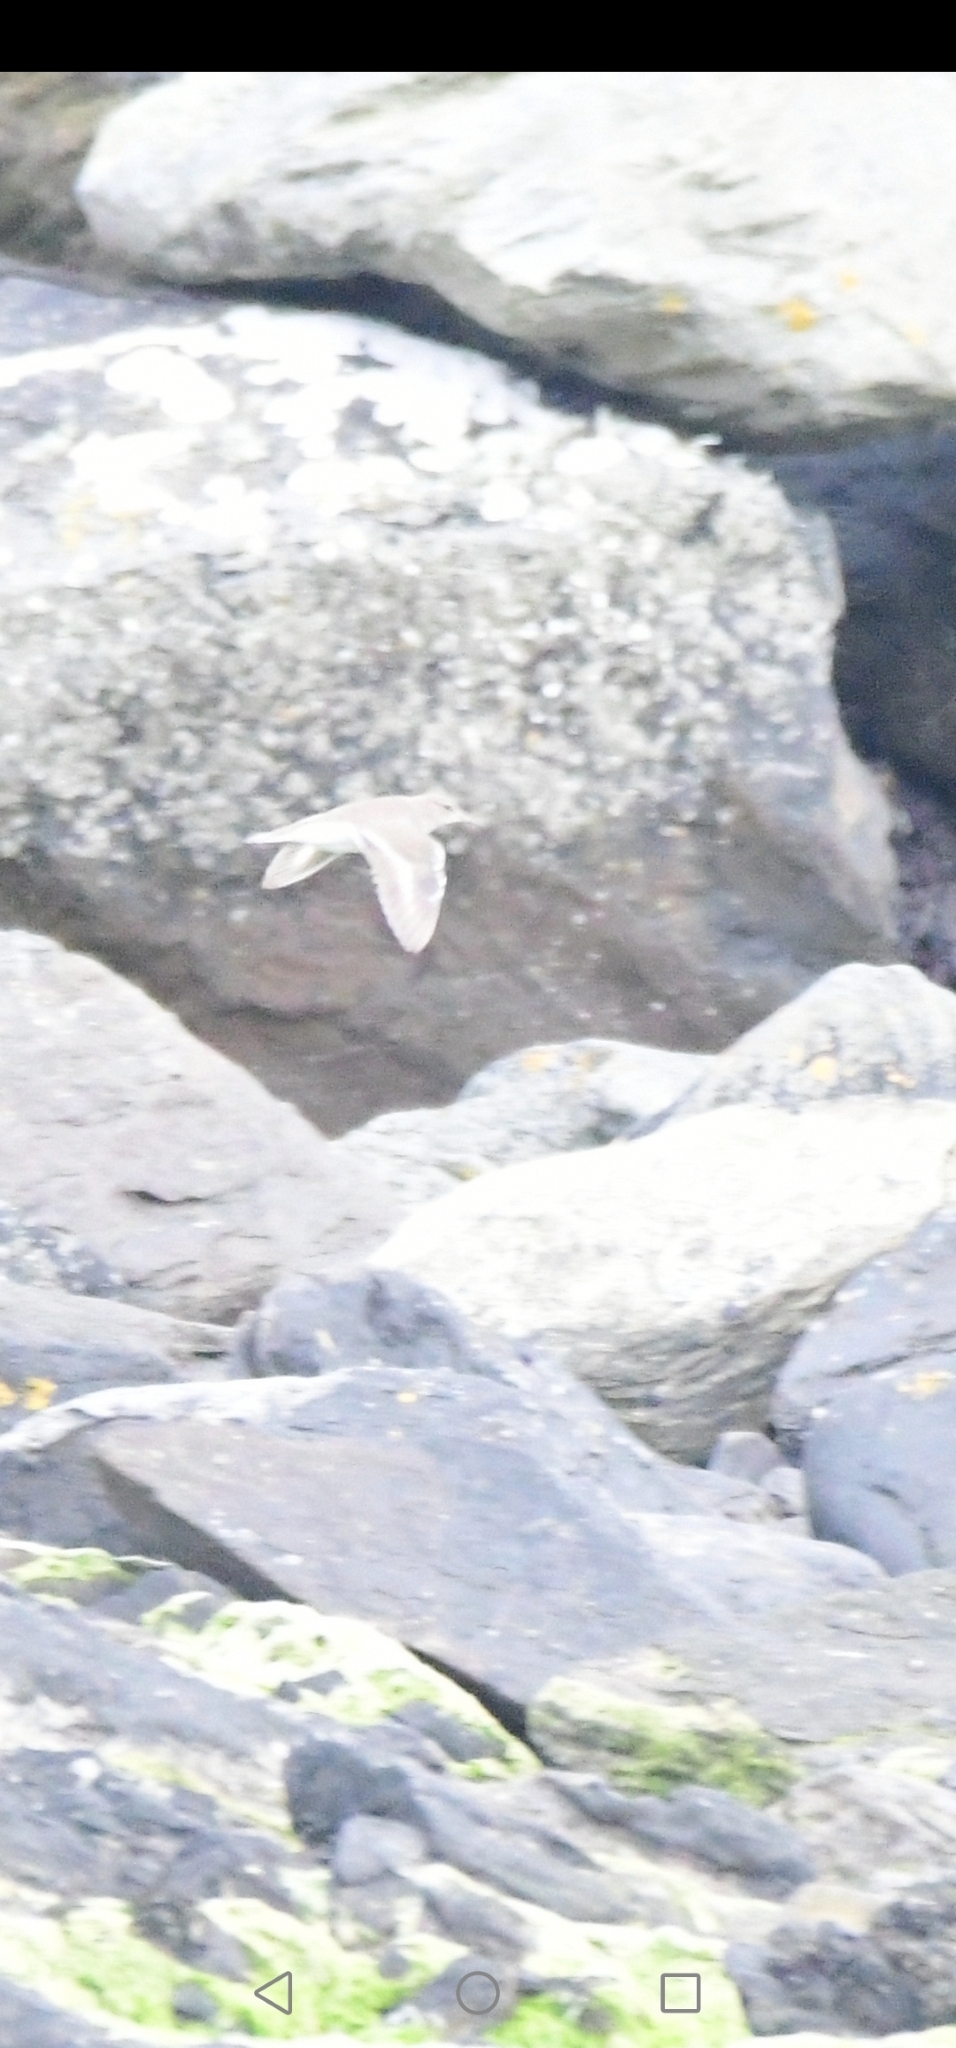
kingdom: Animalia
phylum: Chordata
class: Aves
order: Charadriiformes
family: Scolopacidae
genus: Actitis
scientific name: Actitis hypoleucos
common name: Common sandpiper
